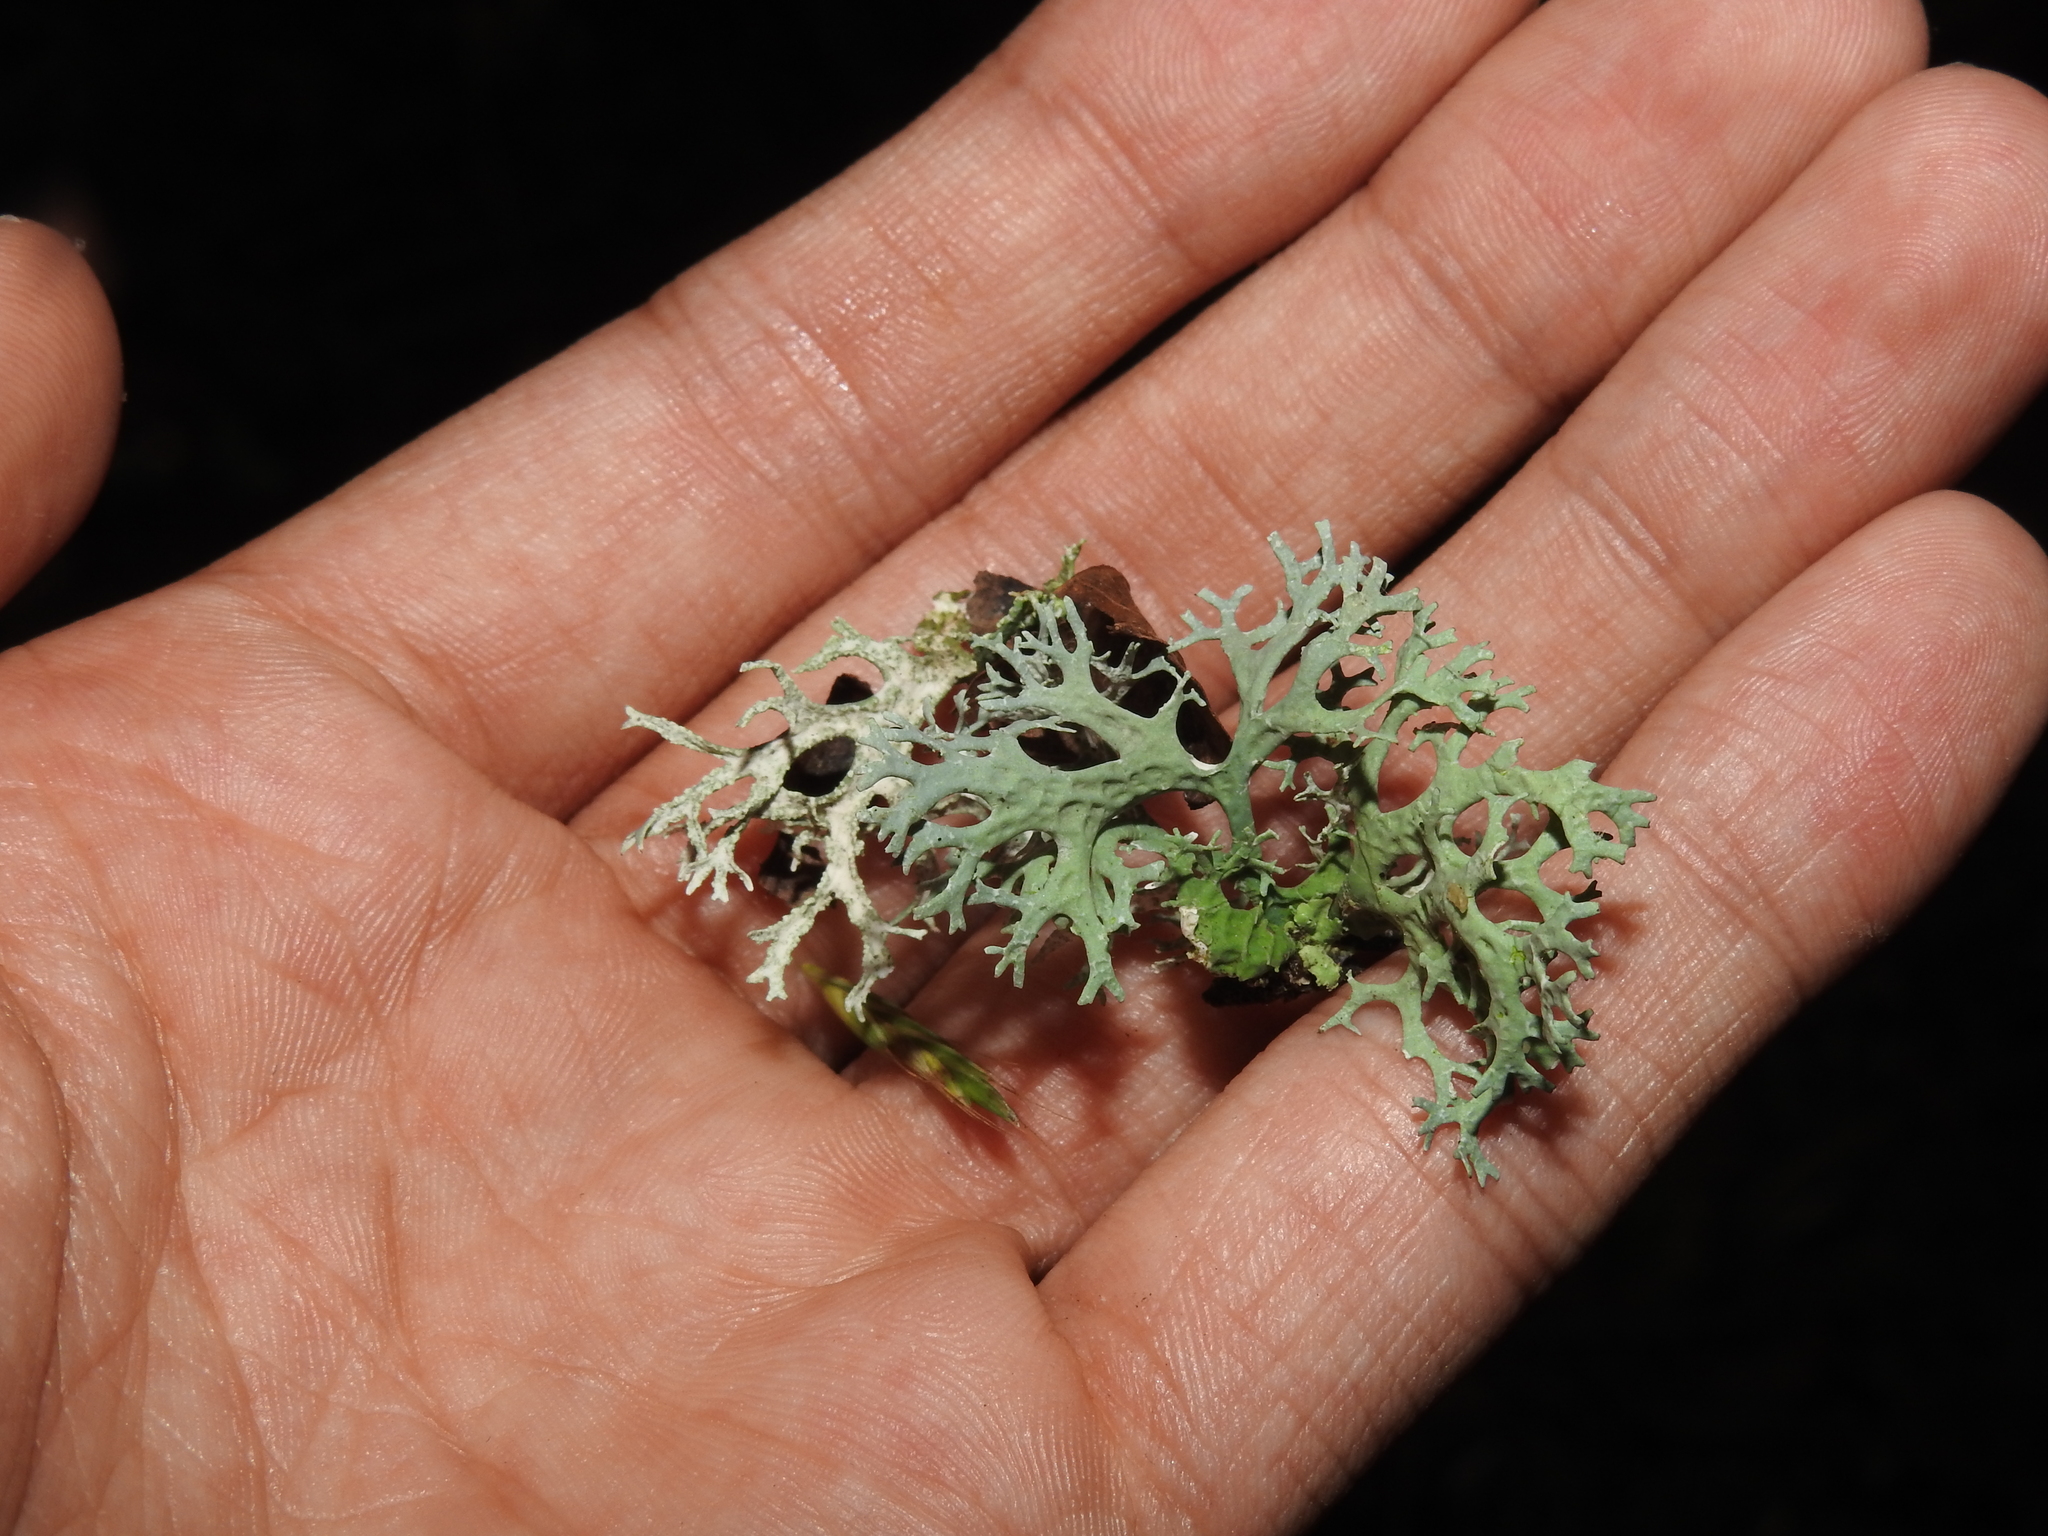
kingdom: Fungi
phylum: Ascomycota
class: Lecanoromycetes
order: Lecanorales
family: Parmeliaceae
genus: Evernia
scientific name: Evernia prunastri
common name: Oak moss
